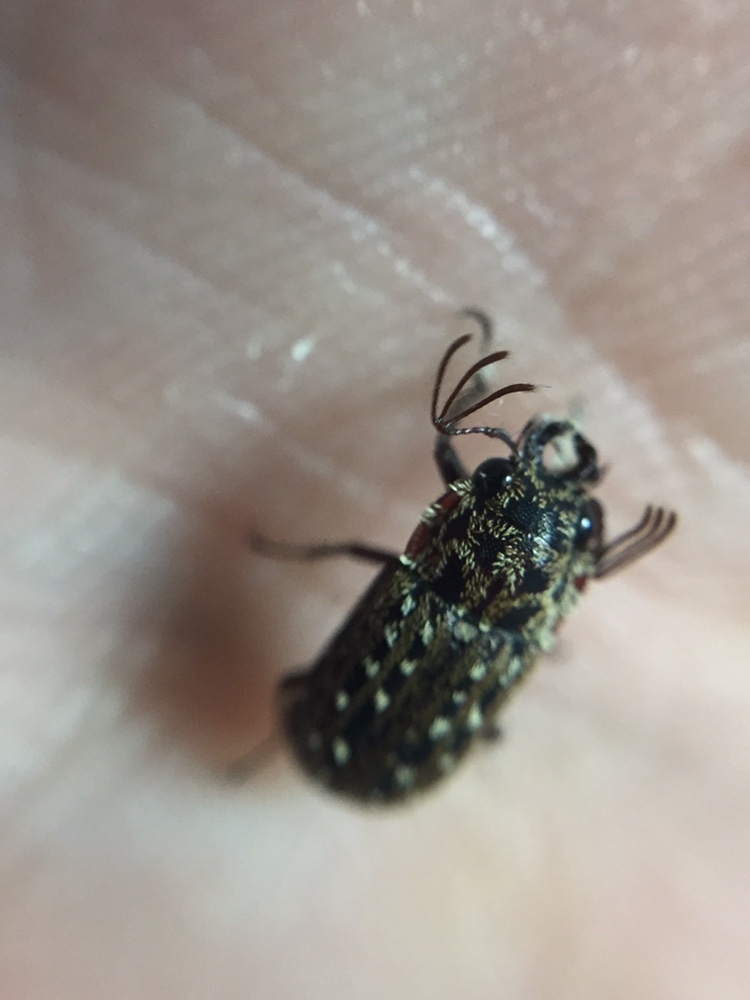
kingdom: Animalia
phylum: Arthropoda
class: Insecta
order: Coleoptera
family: Lucanidae
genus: Mitophyllus
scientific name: Mitophyllus arcuatus
